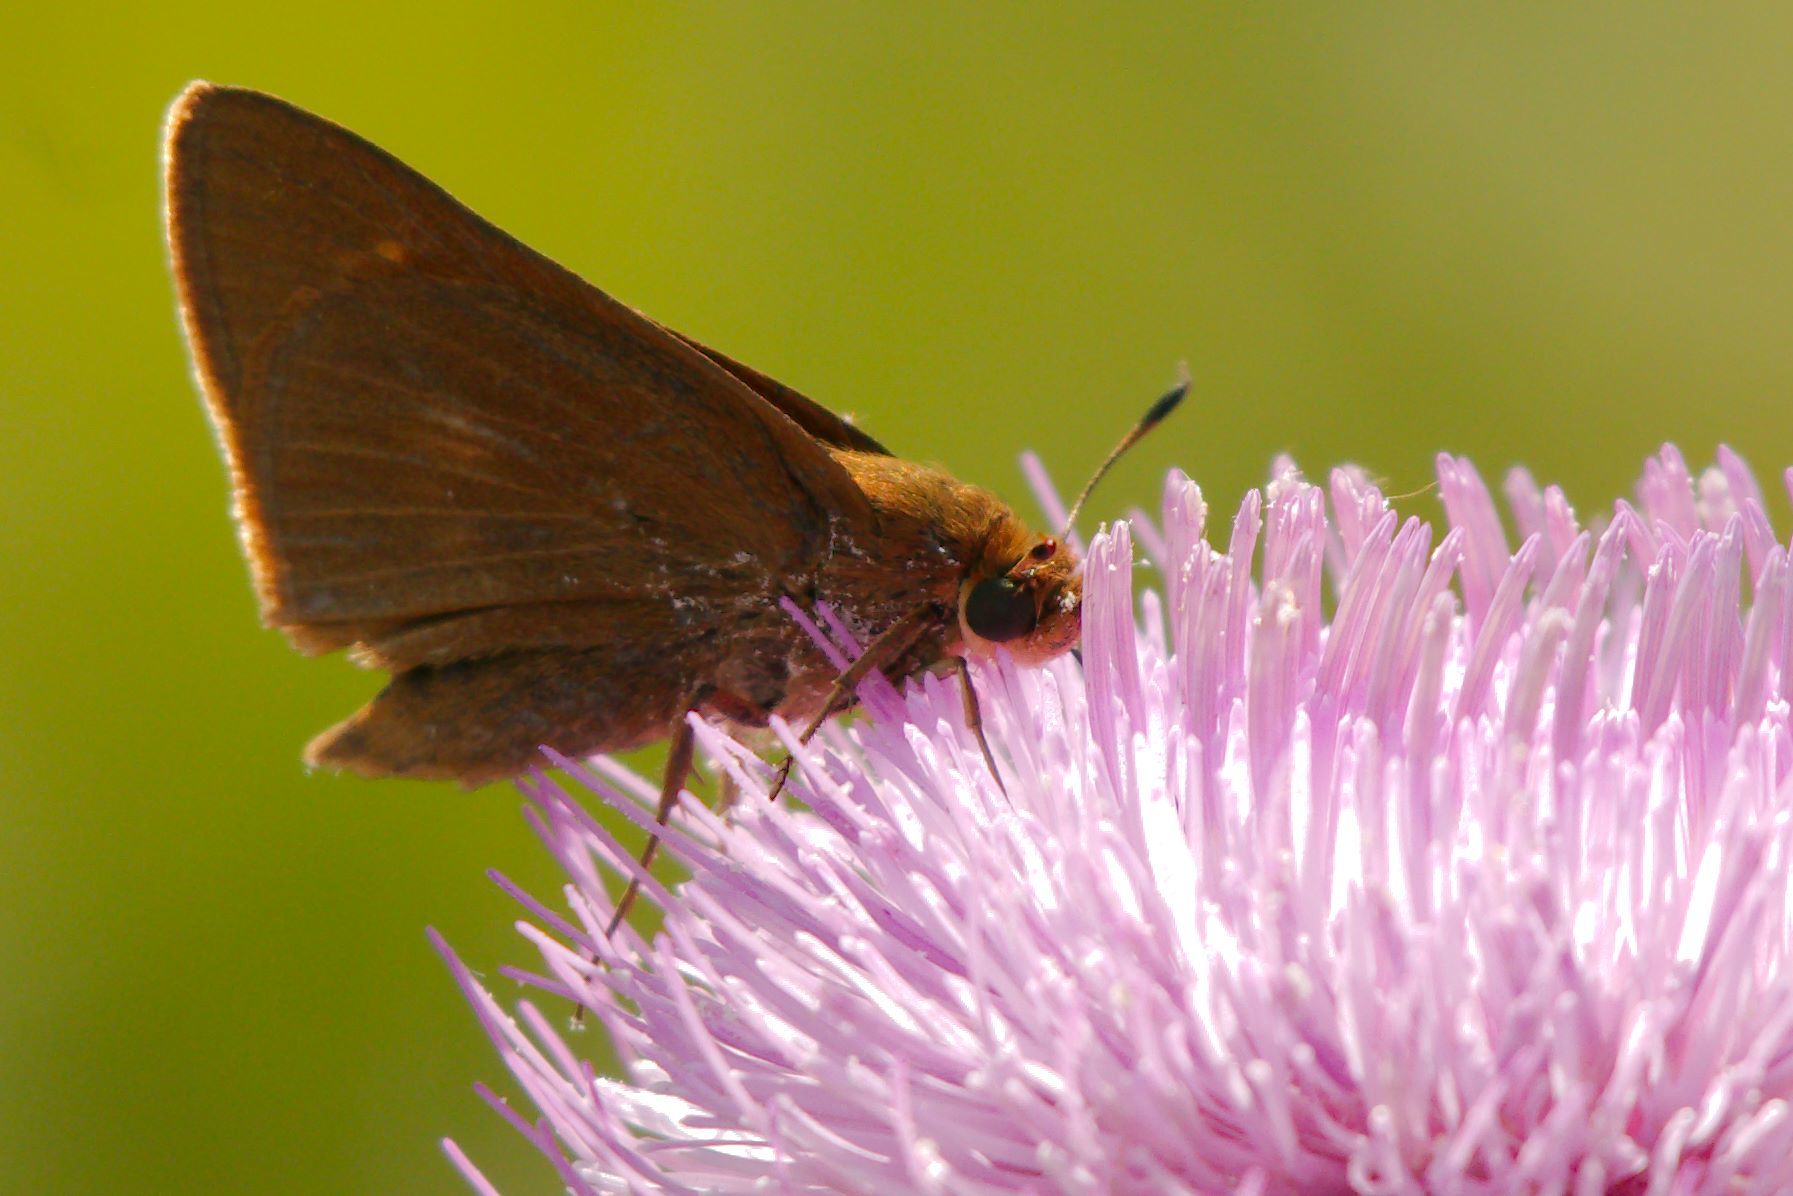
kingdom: Animalia
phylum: Arthropoda
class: Insecta
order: Lepidoptera
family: Hesperiidae
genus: Euphyes
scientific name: Euphyes pilatka
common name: Palatka skipper
